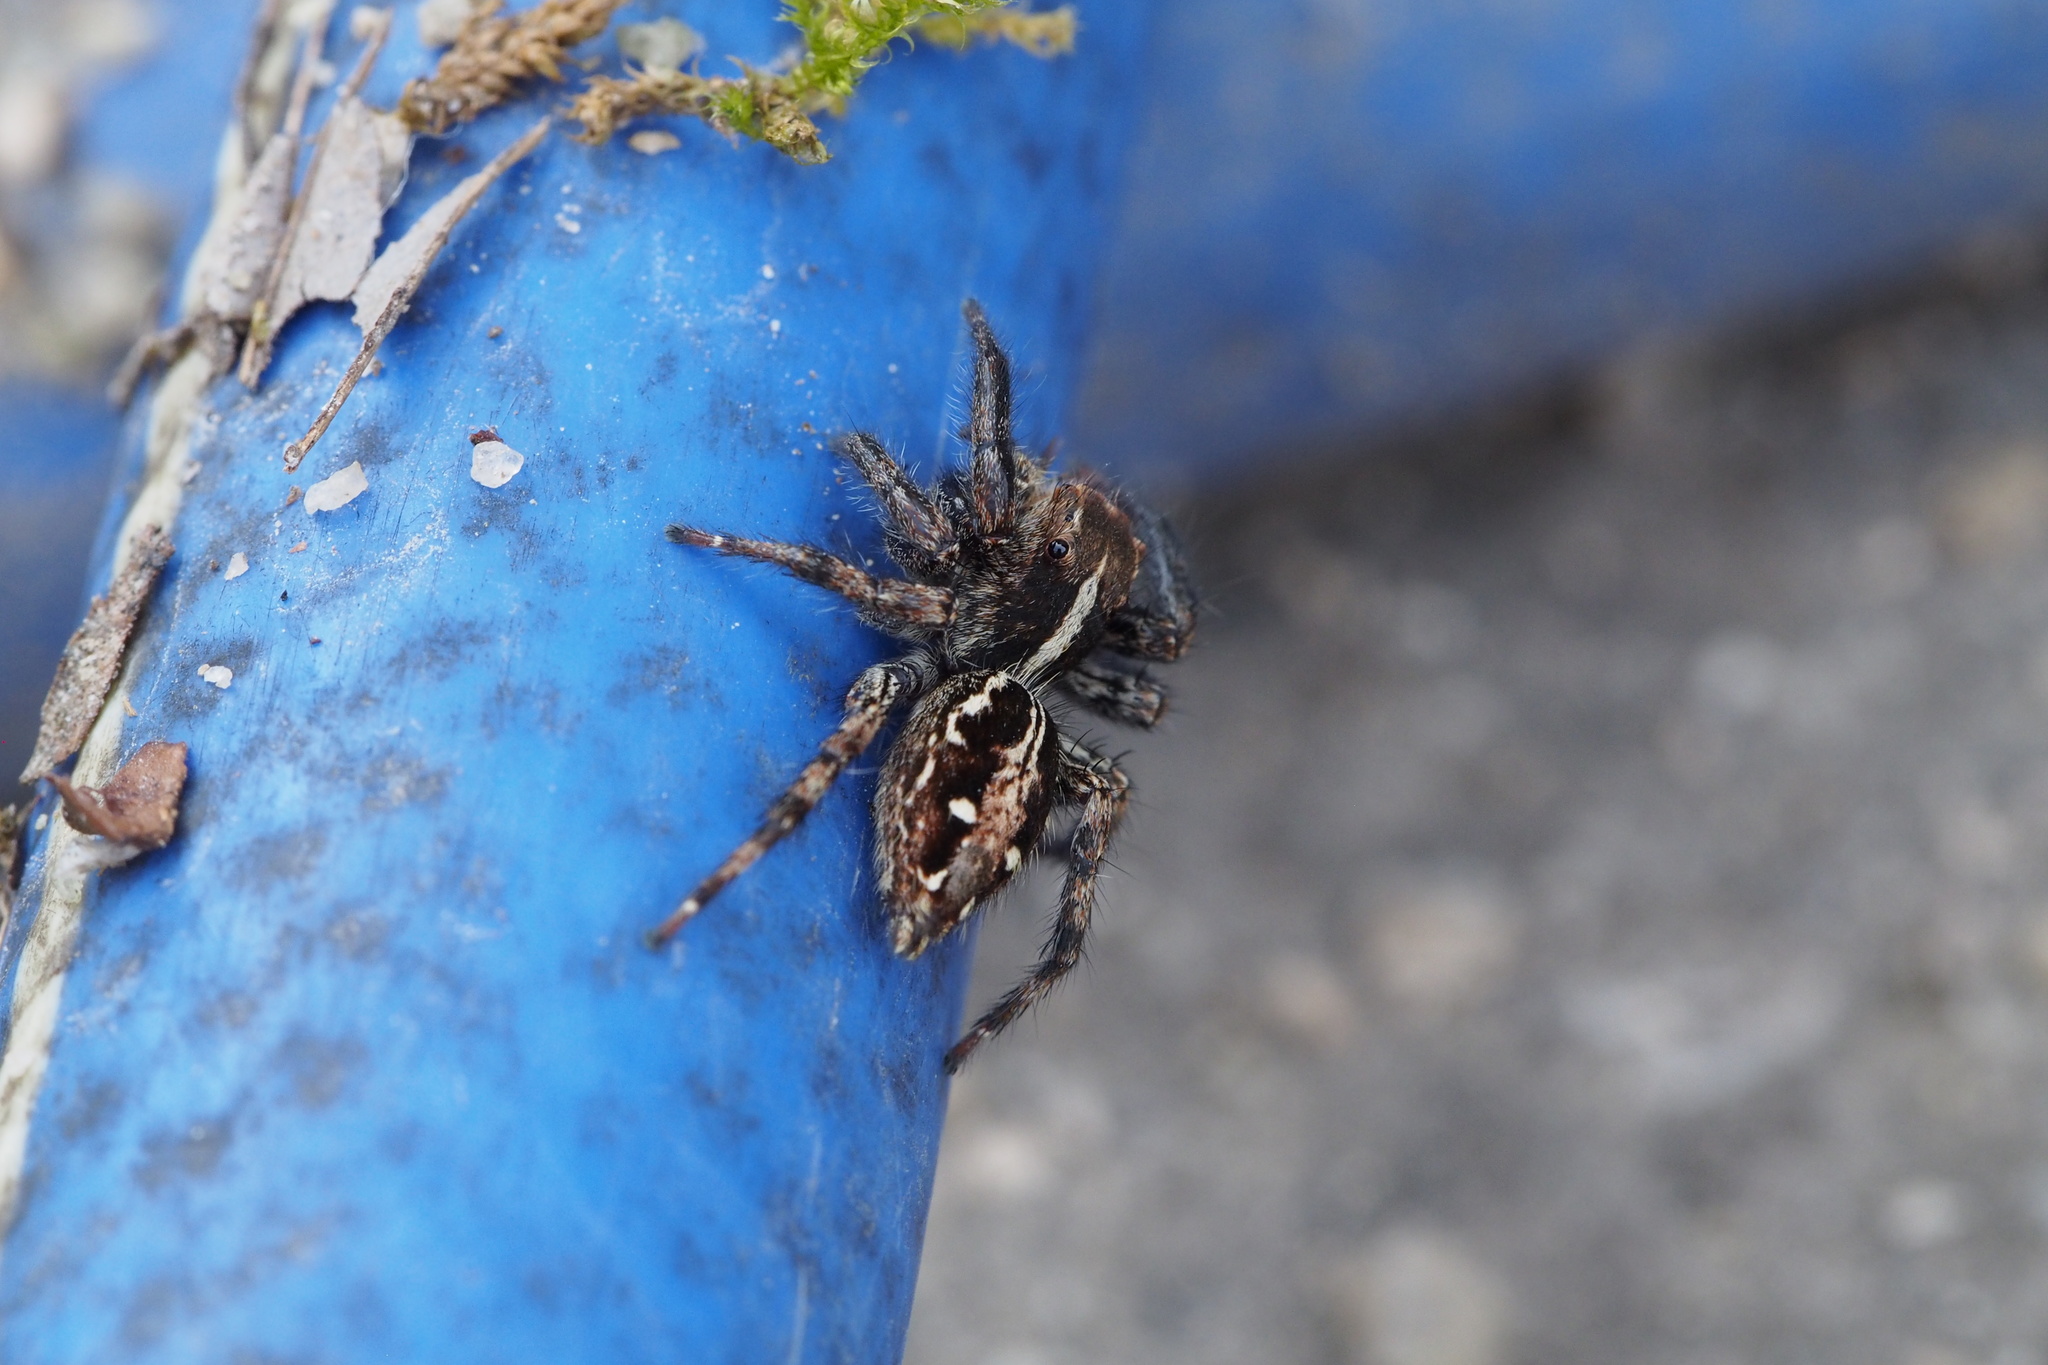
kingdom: Animalia
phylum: Arthropoda
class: Arachnida
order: Araneae
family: Salticidae
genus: Plexippus
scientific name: Plexippus paykulli
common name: Pantropical jumper
